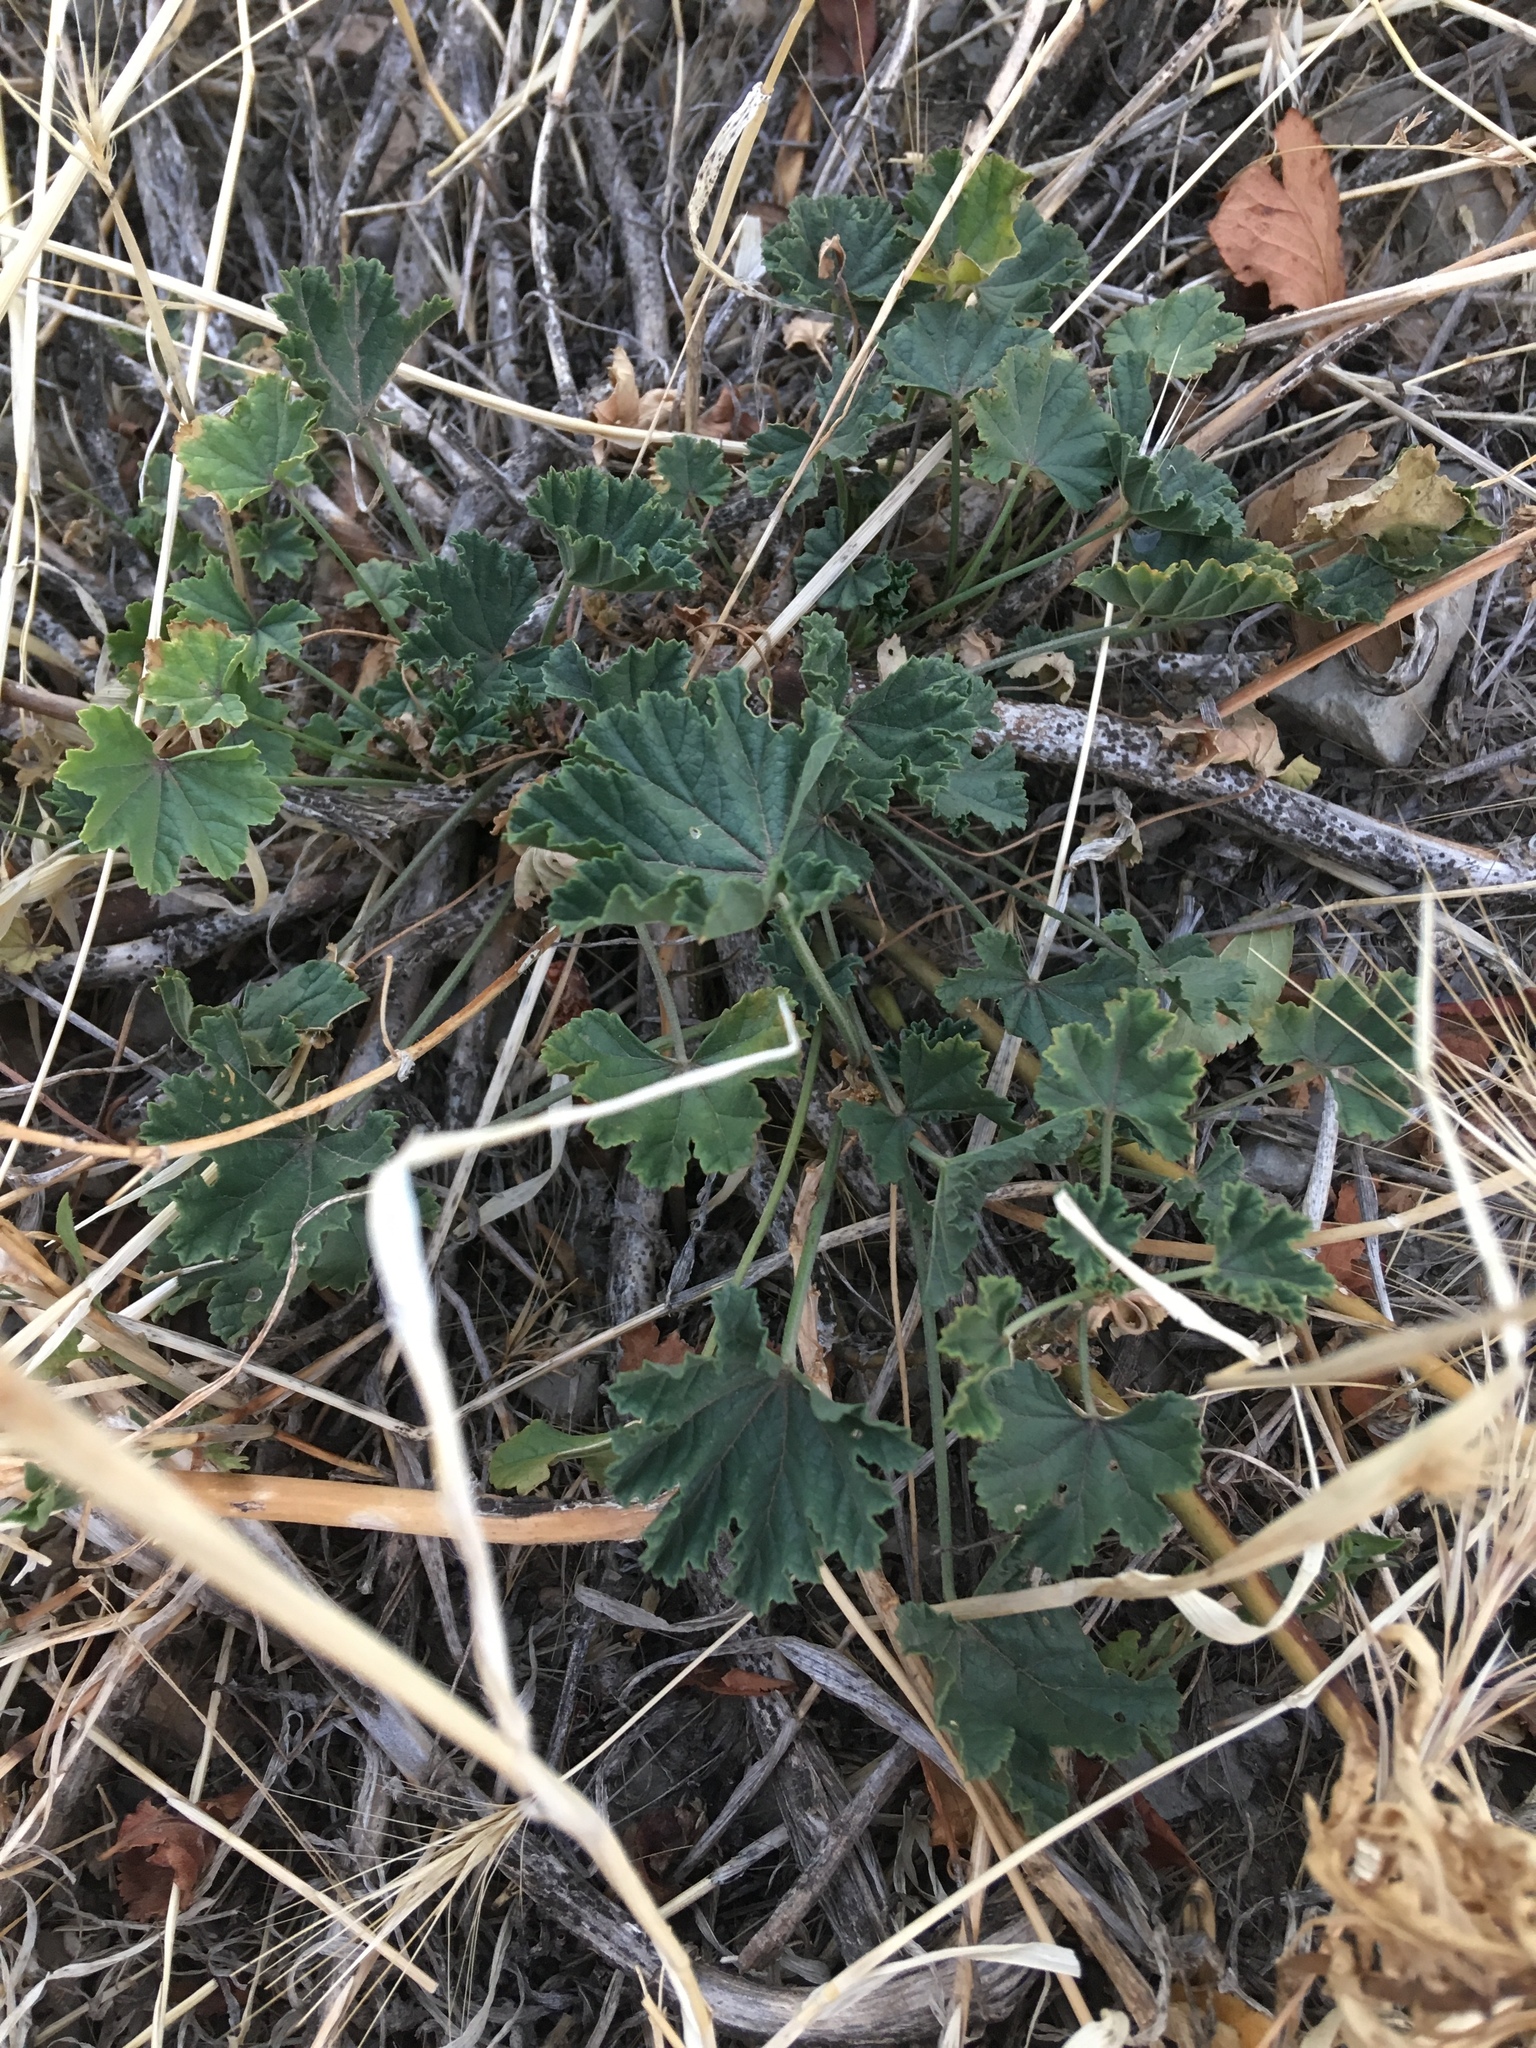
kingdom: Plantae
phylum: Tracheophyta
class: Magnoliopsida
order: Malvales
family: Malvaceae
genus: Malva
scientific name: Malva sylvestris
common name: Common mallow
